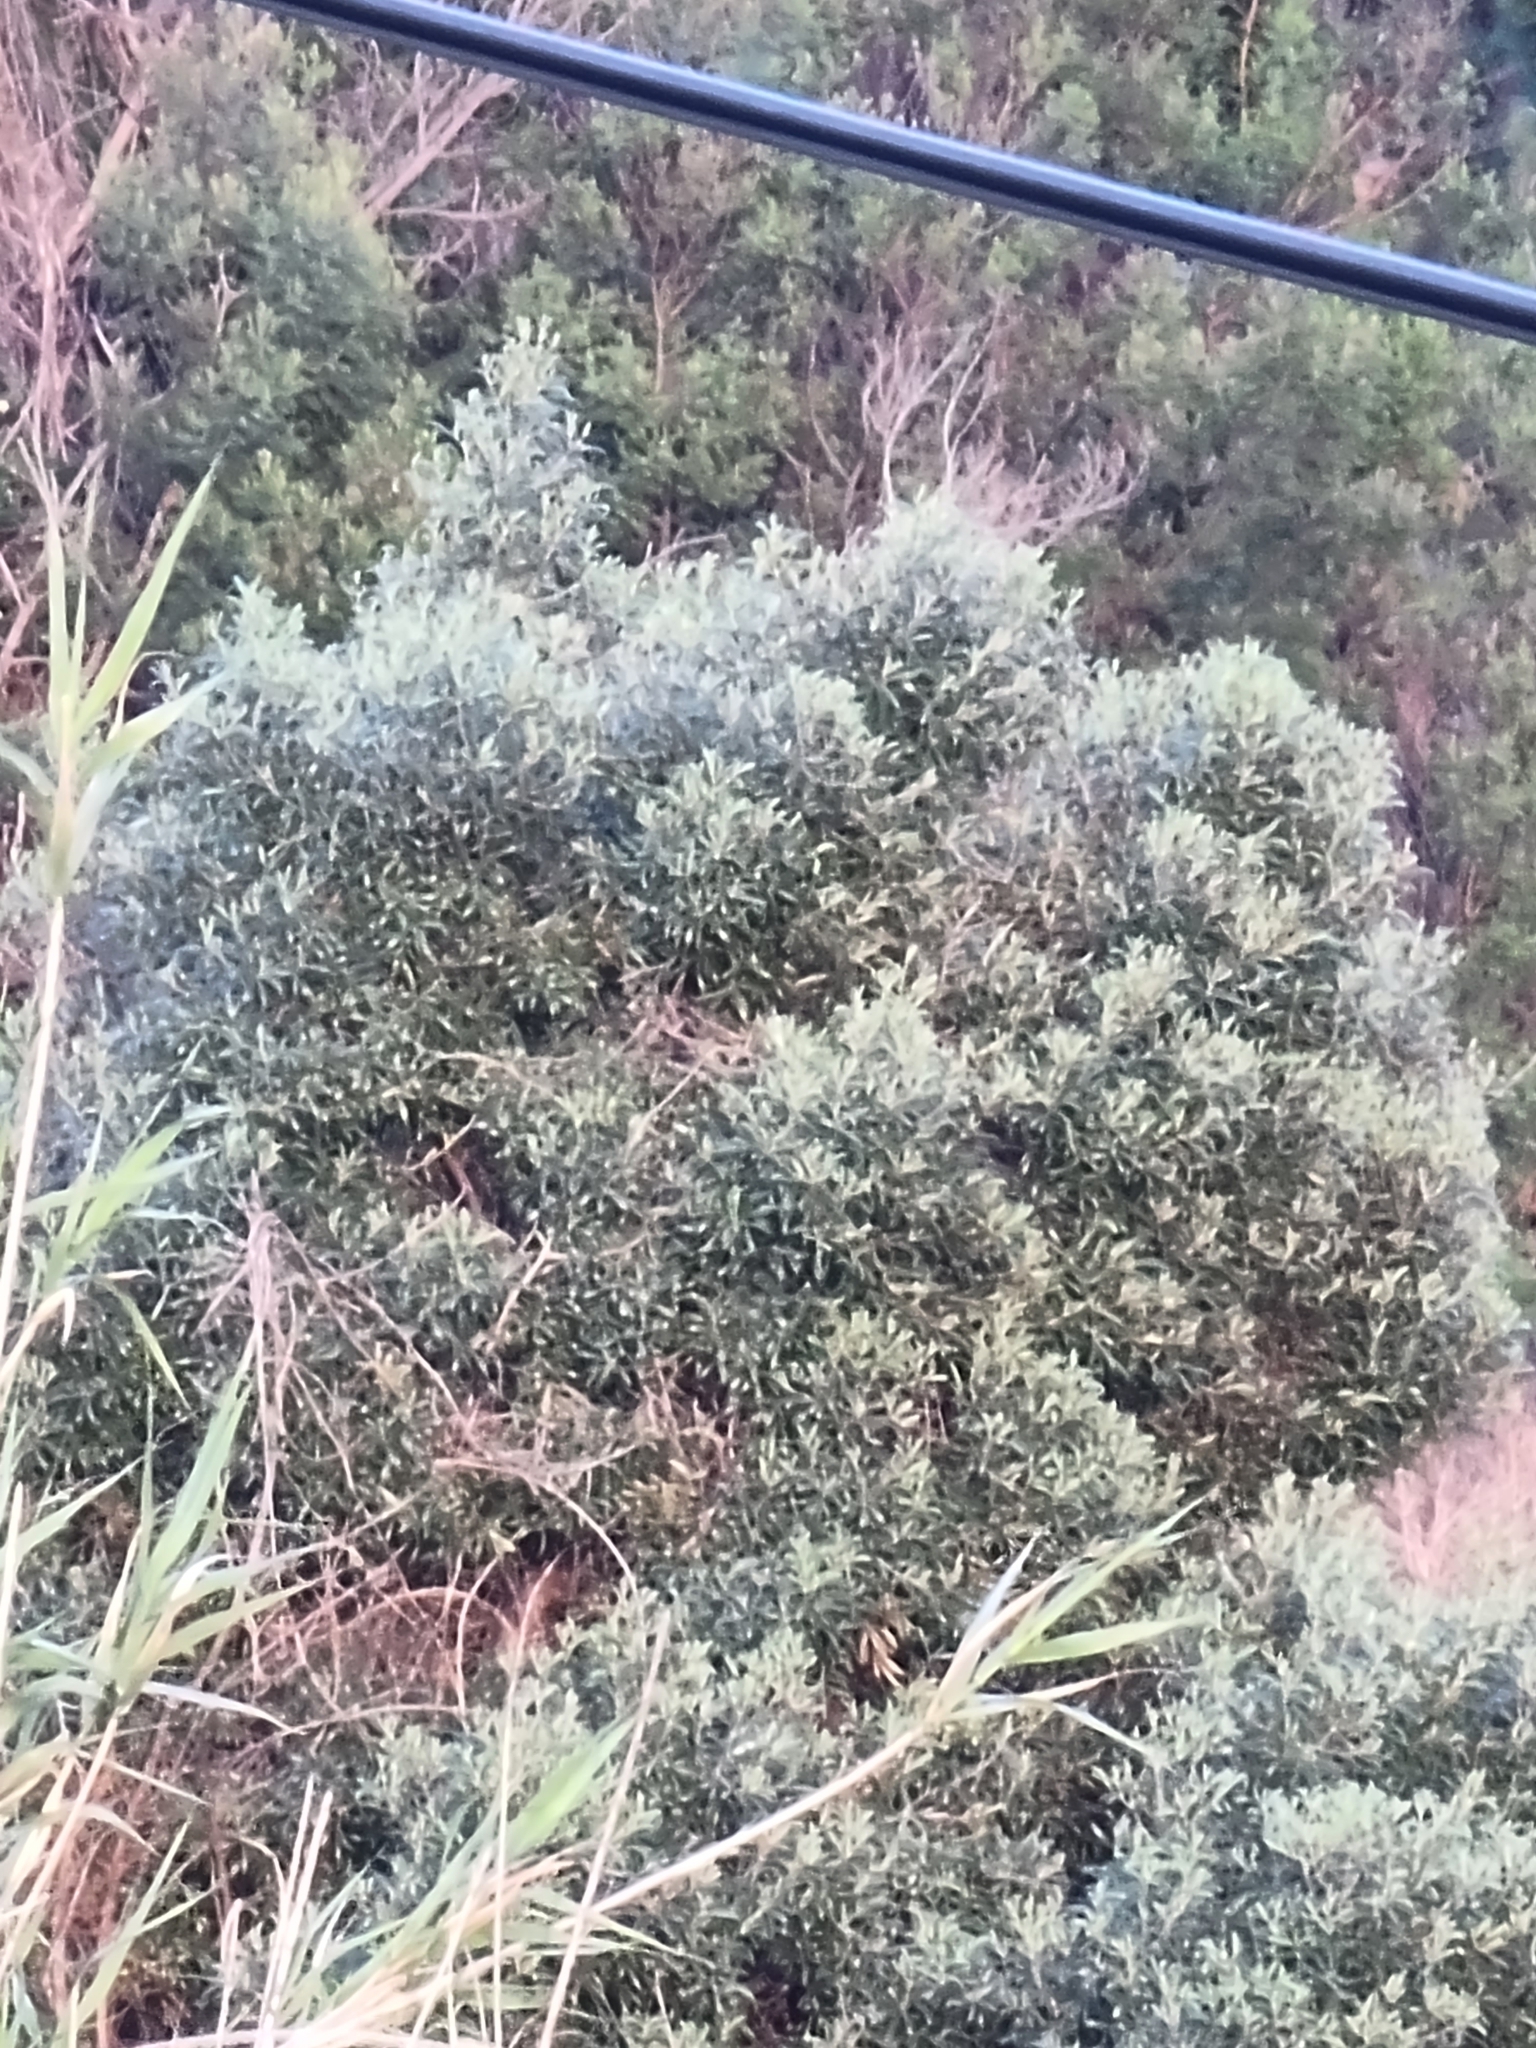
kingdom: Plantae
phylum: Tracheophyta
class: Magnoliopsida
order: Lamiales
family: Oleaceae
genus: Olea
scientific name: Olea europaea
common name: Olive
